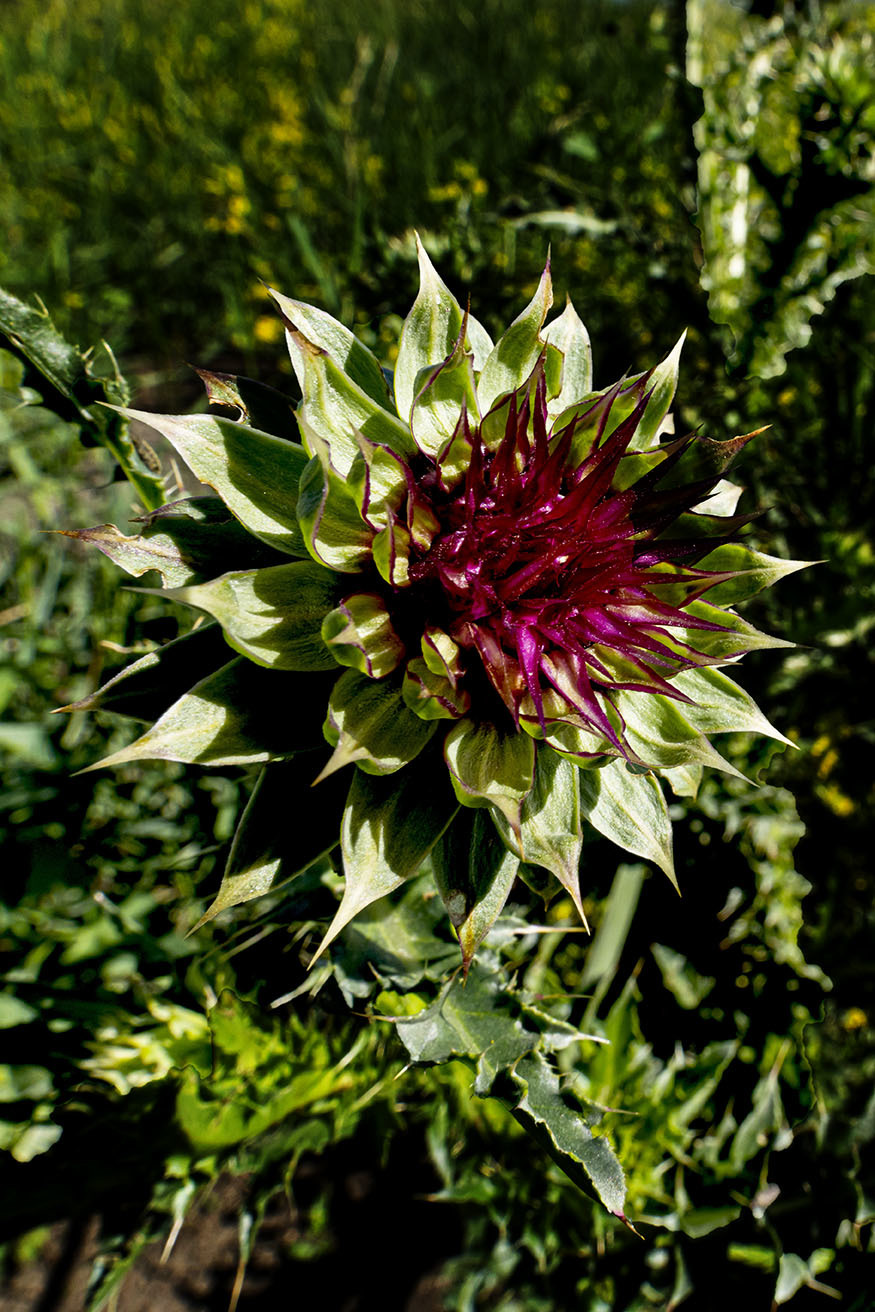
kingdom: Plantae
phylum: Tracheophyta
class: Magnoliopsida
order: Asterales
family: Asteraceae
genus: Carduus
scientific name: Carduus nutans
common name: Musk thistle
